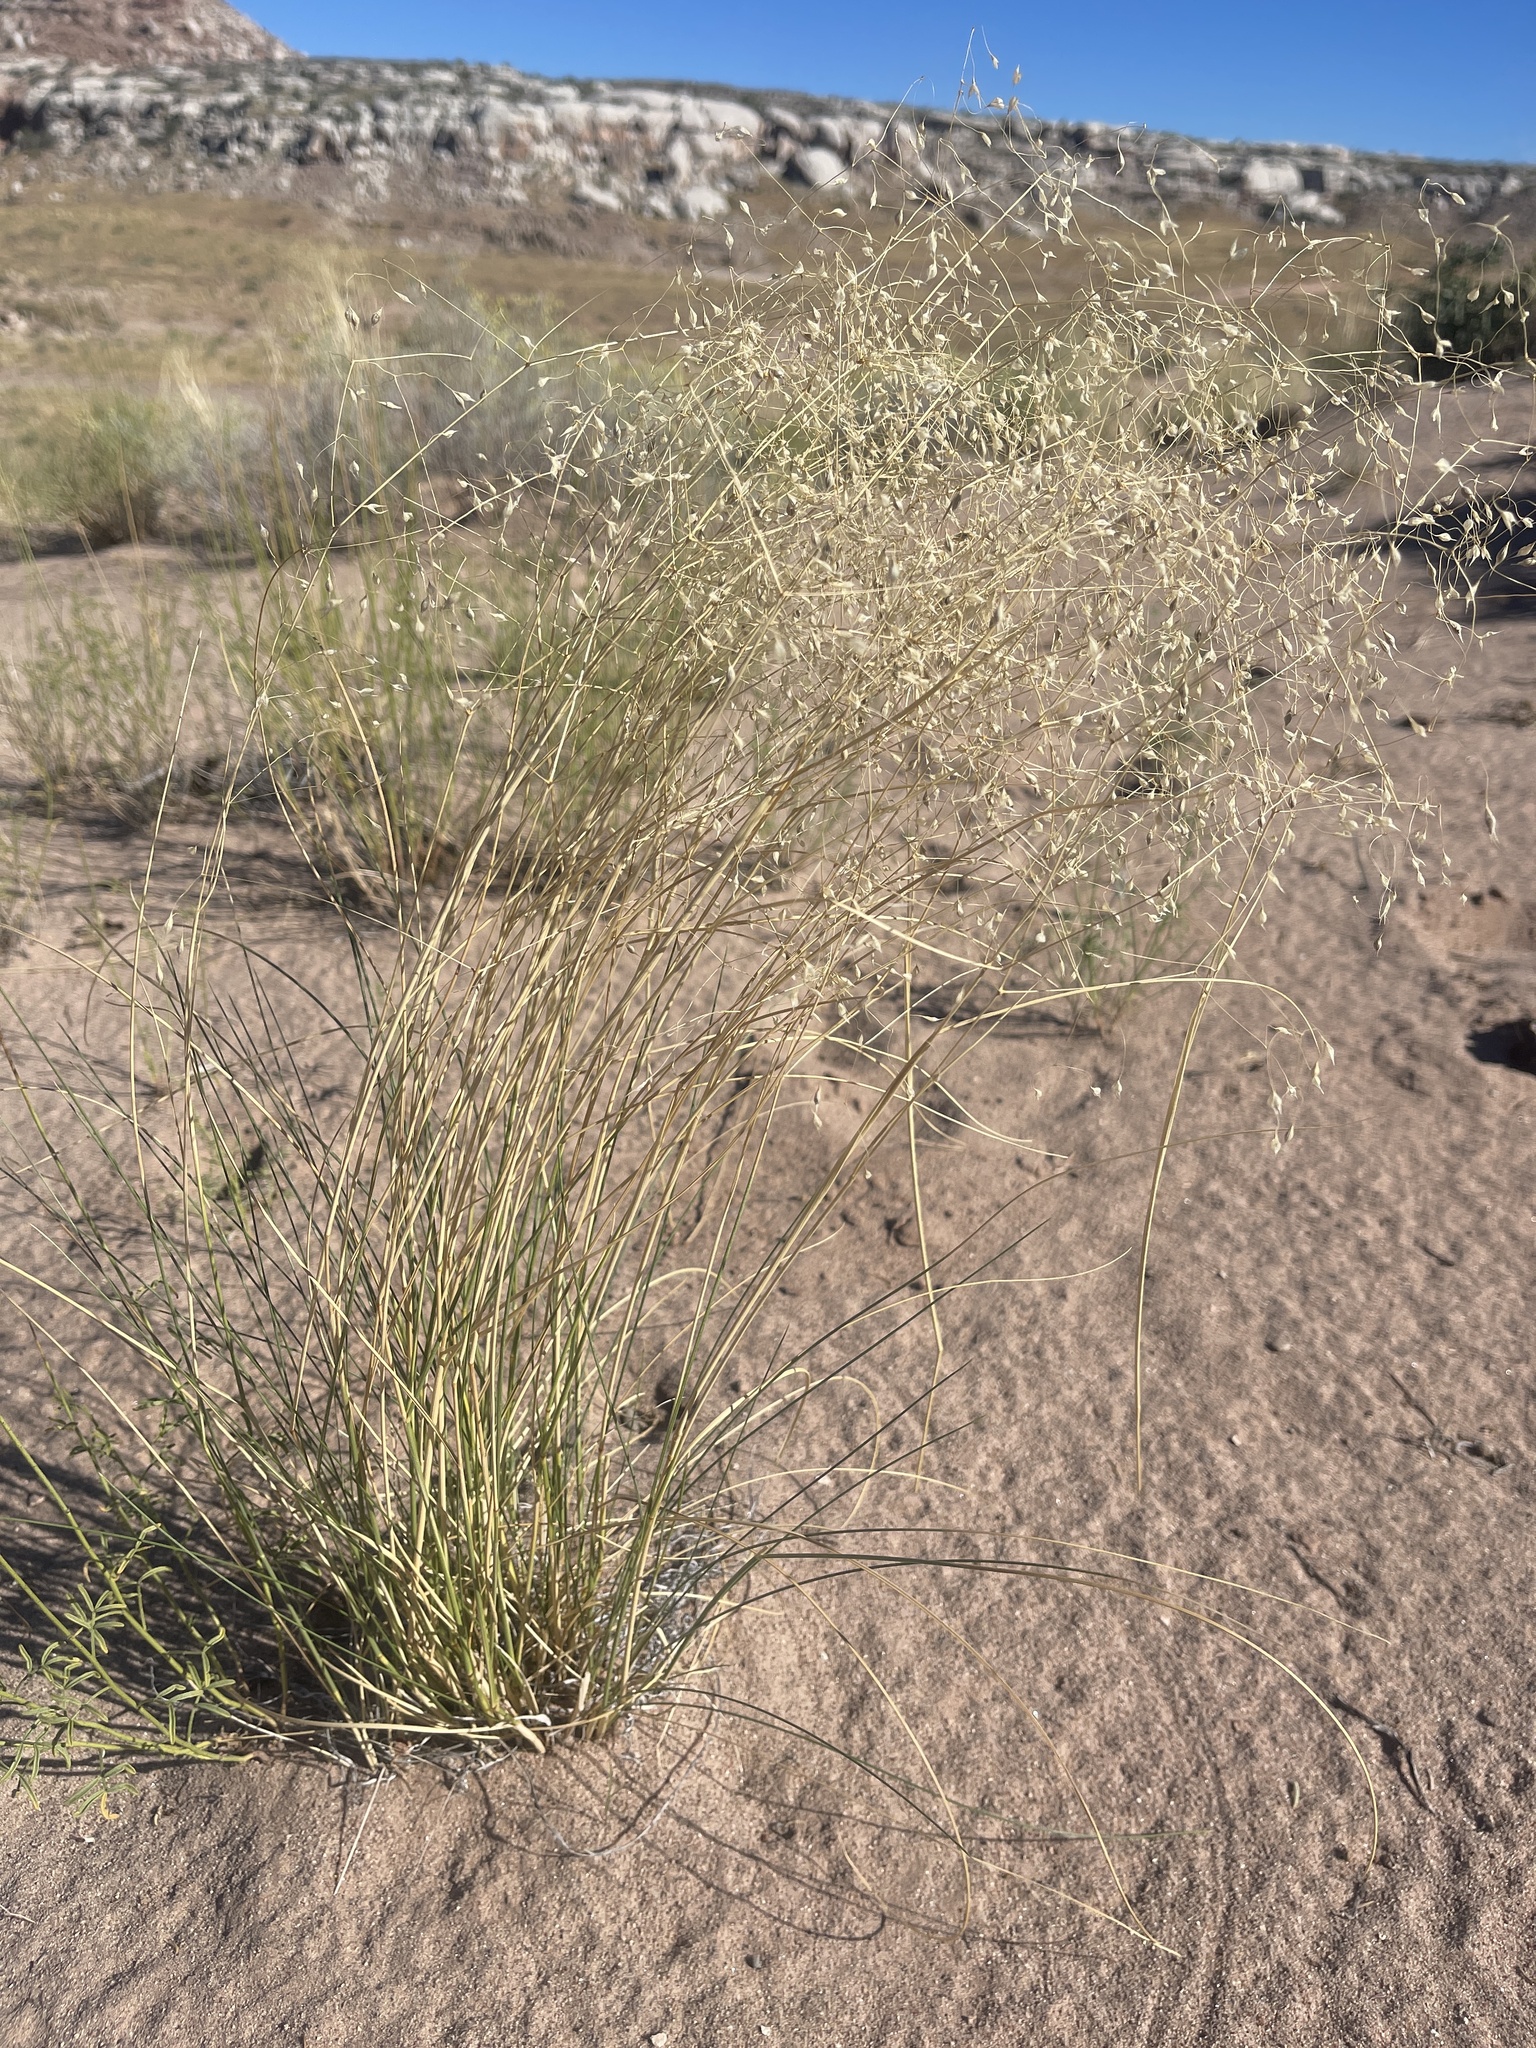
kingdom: Plantae
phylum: Tracheophyta
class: Liliopsida
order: Poales
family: Poaceae
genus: Eriocoma
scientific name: Eriocoma hymenoides
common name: Indian mountain ricegrass
